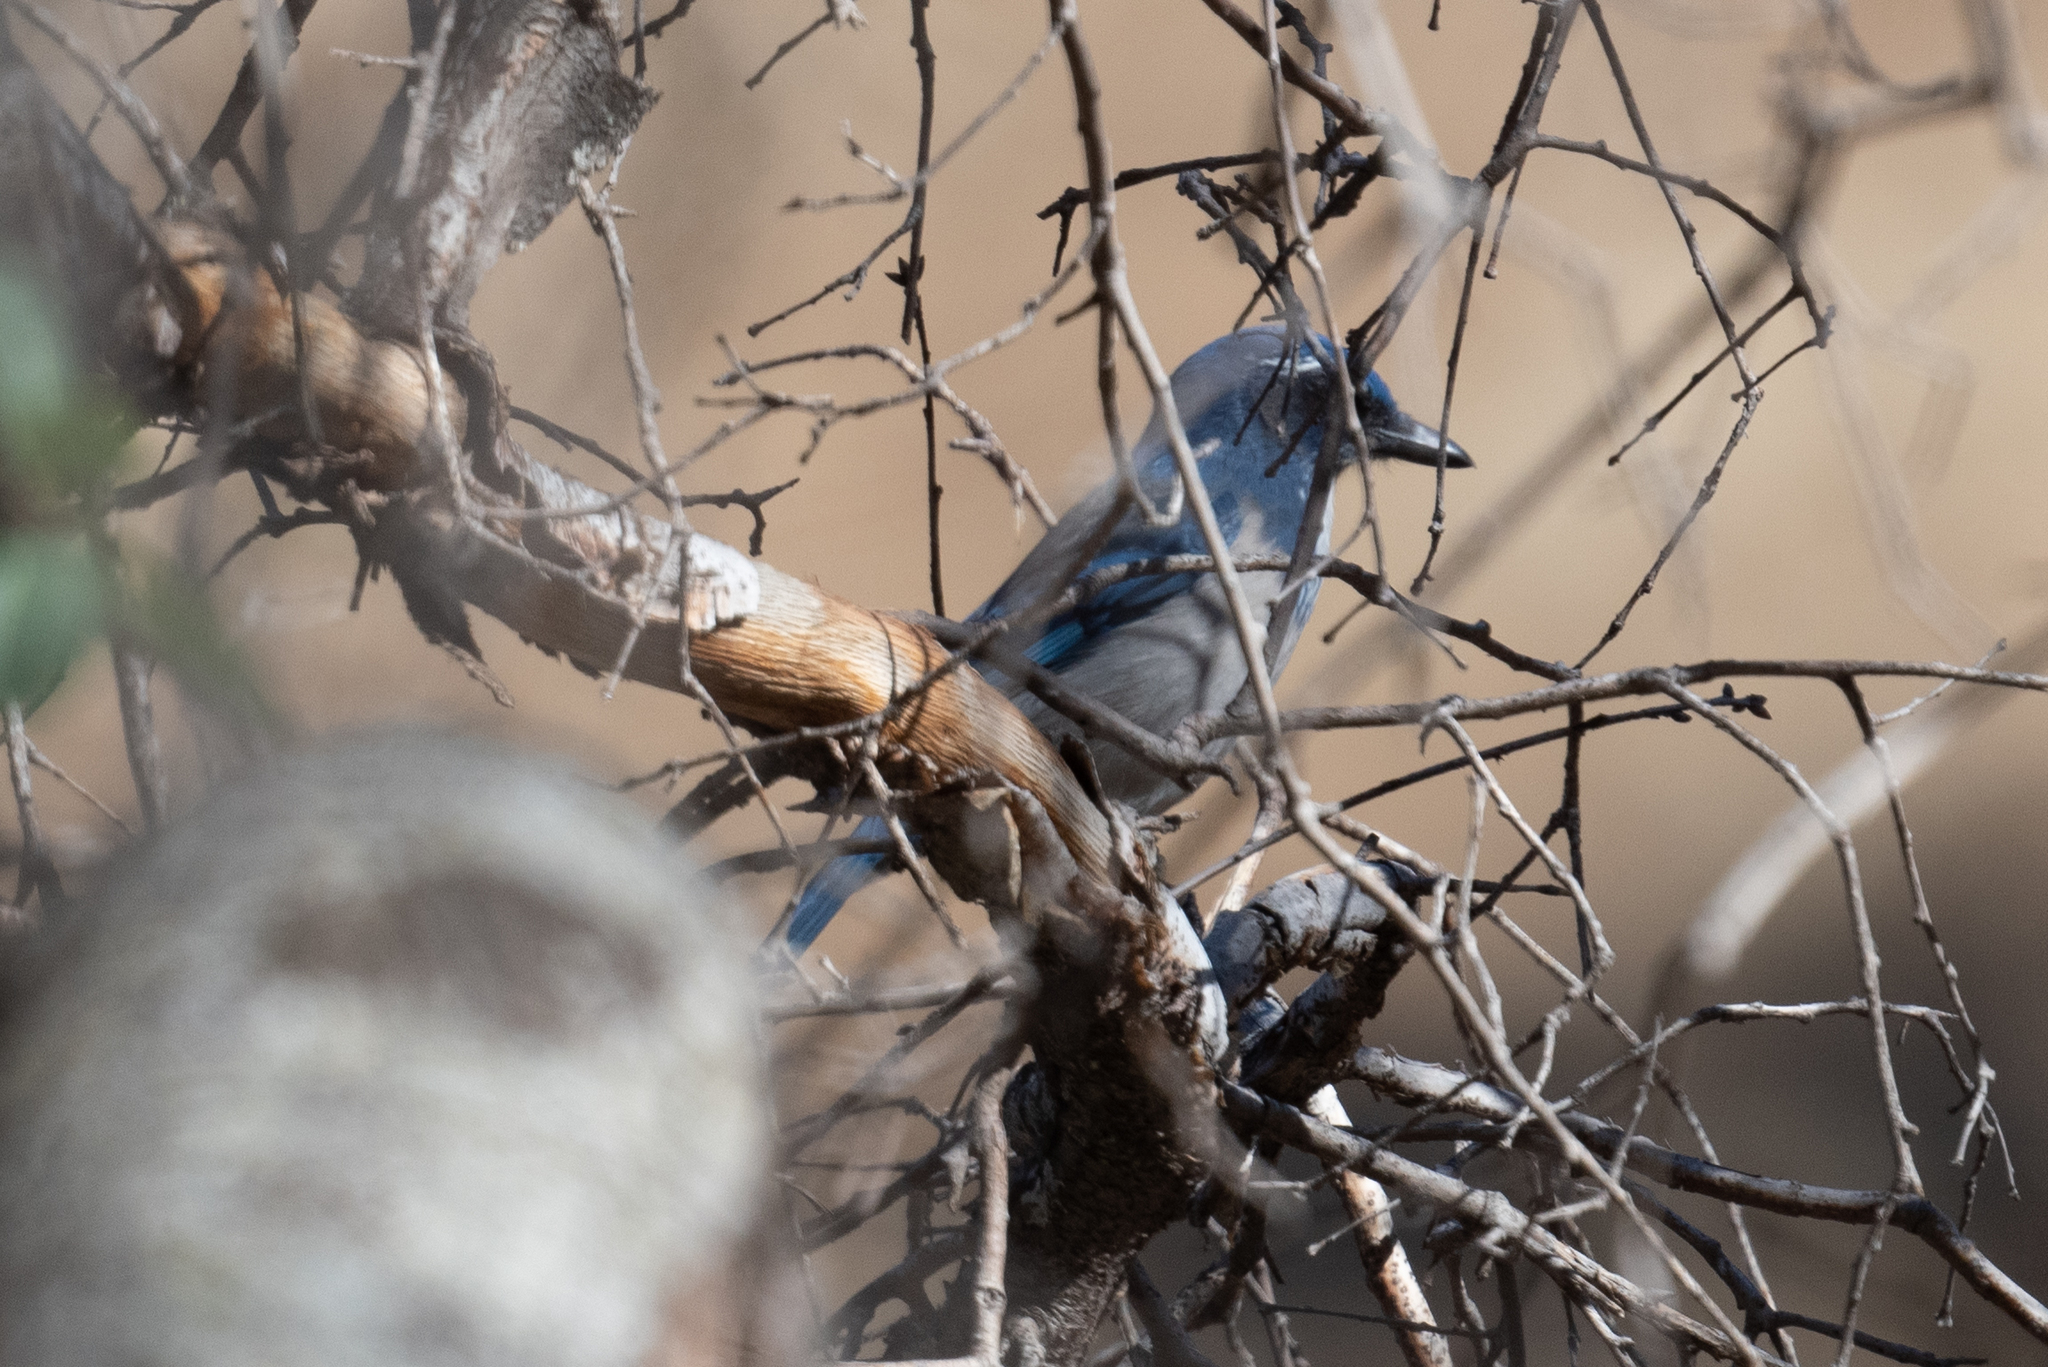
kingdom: Animalia
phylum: Chordata
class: Aves
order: Passeriformes
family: Corvidae
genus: Aphelocoma
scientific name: Aphelocoma californica
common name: California scrub-jay
